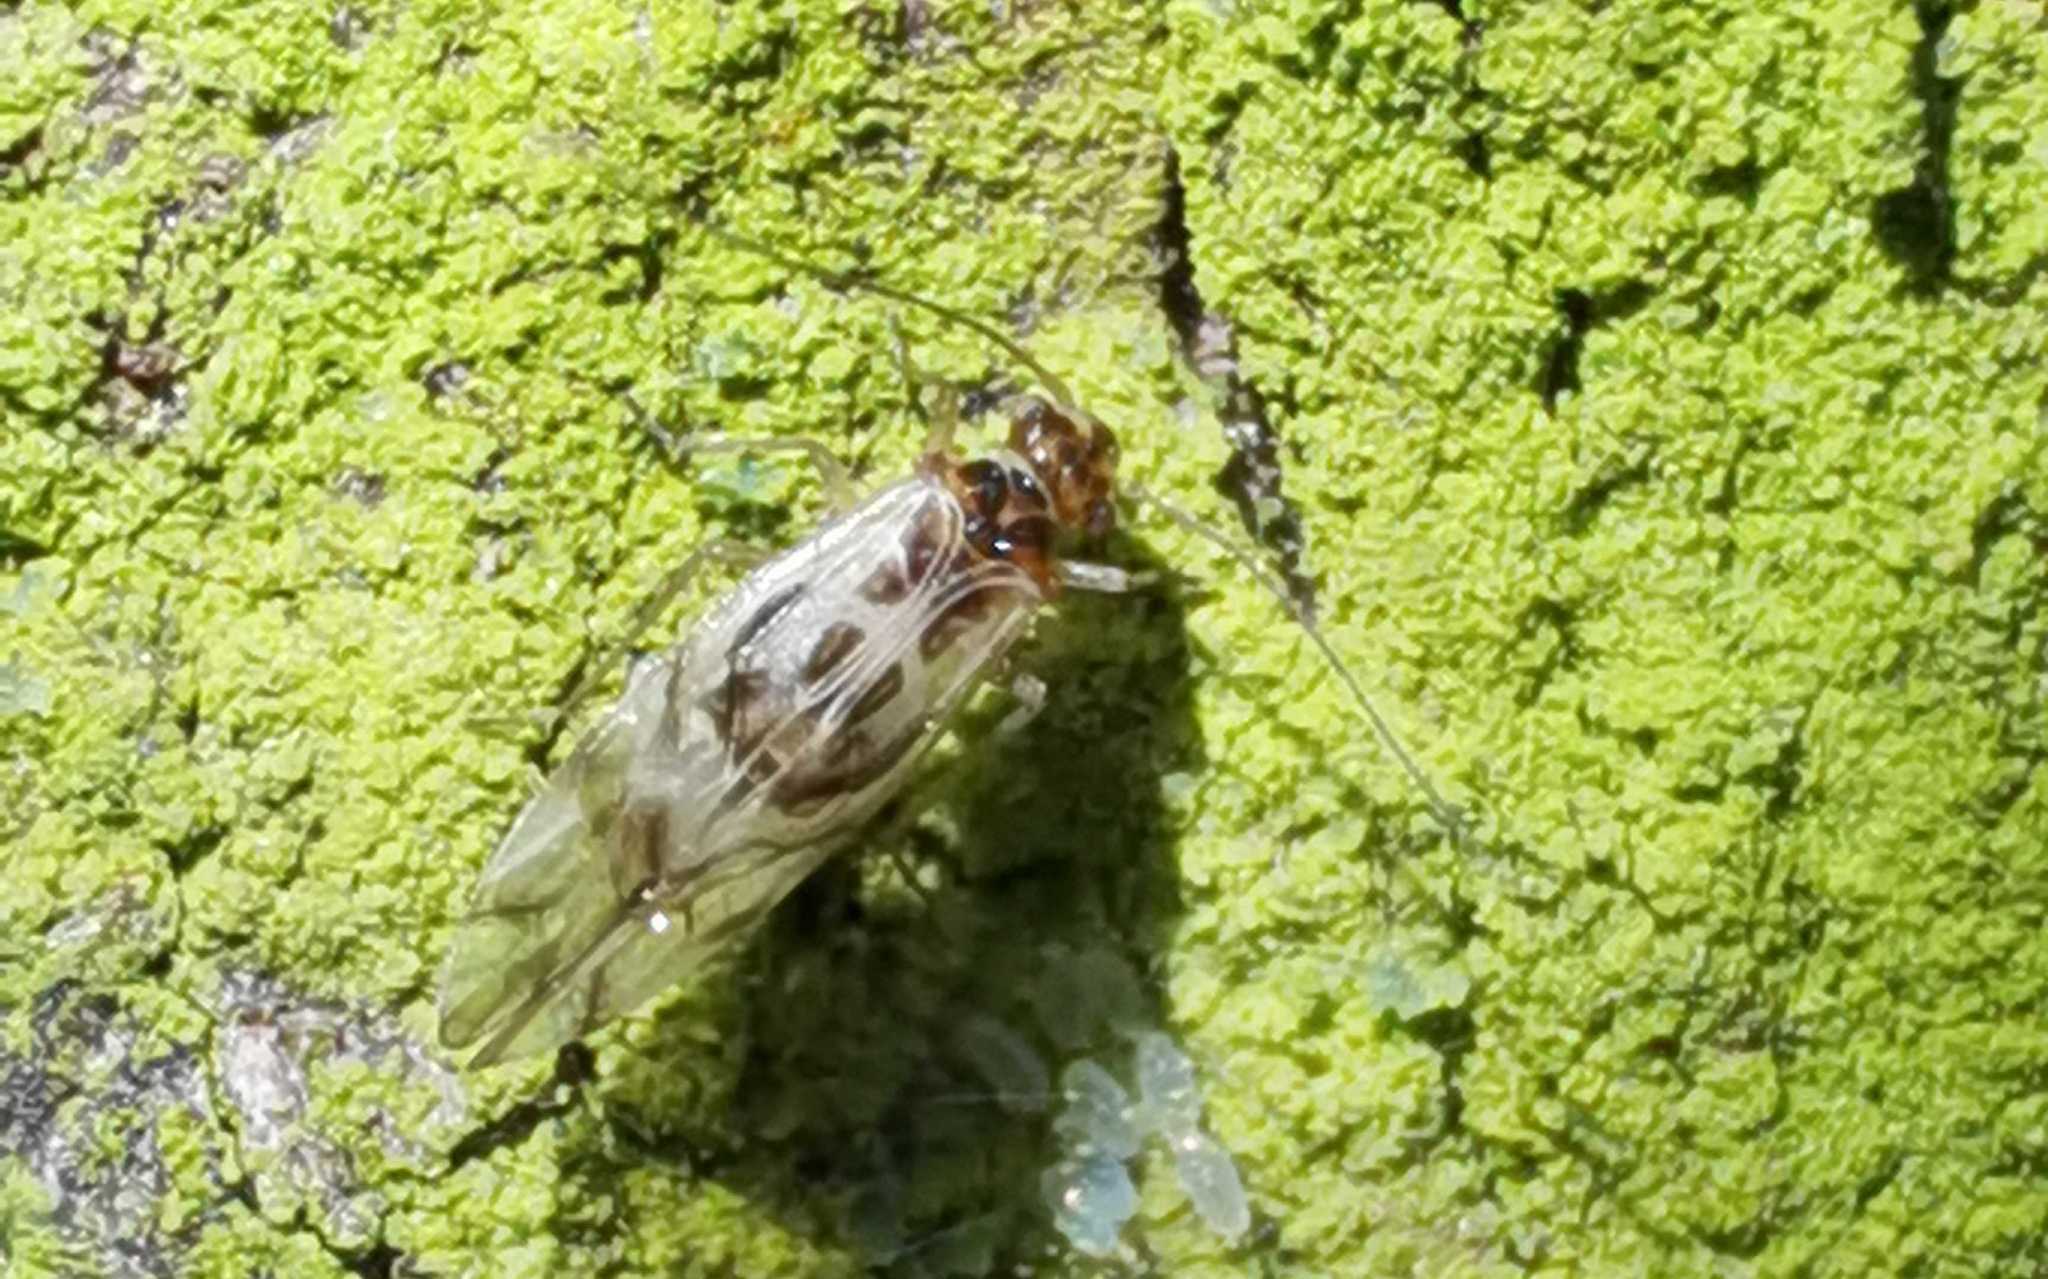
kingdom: Animalia
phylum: Arthropoda
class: Insecta
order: Psocodea
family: Stenopsocidae
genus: Graphopsocus
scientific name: Graphopsocus cruciatus
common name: Lizard bark louse
